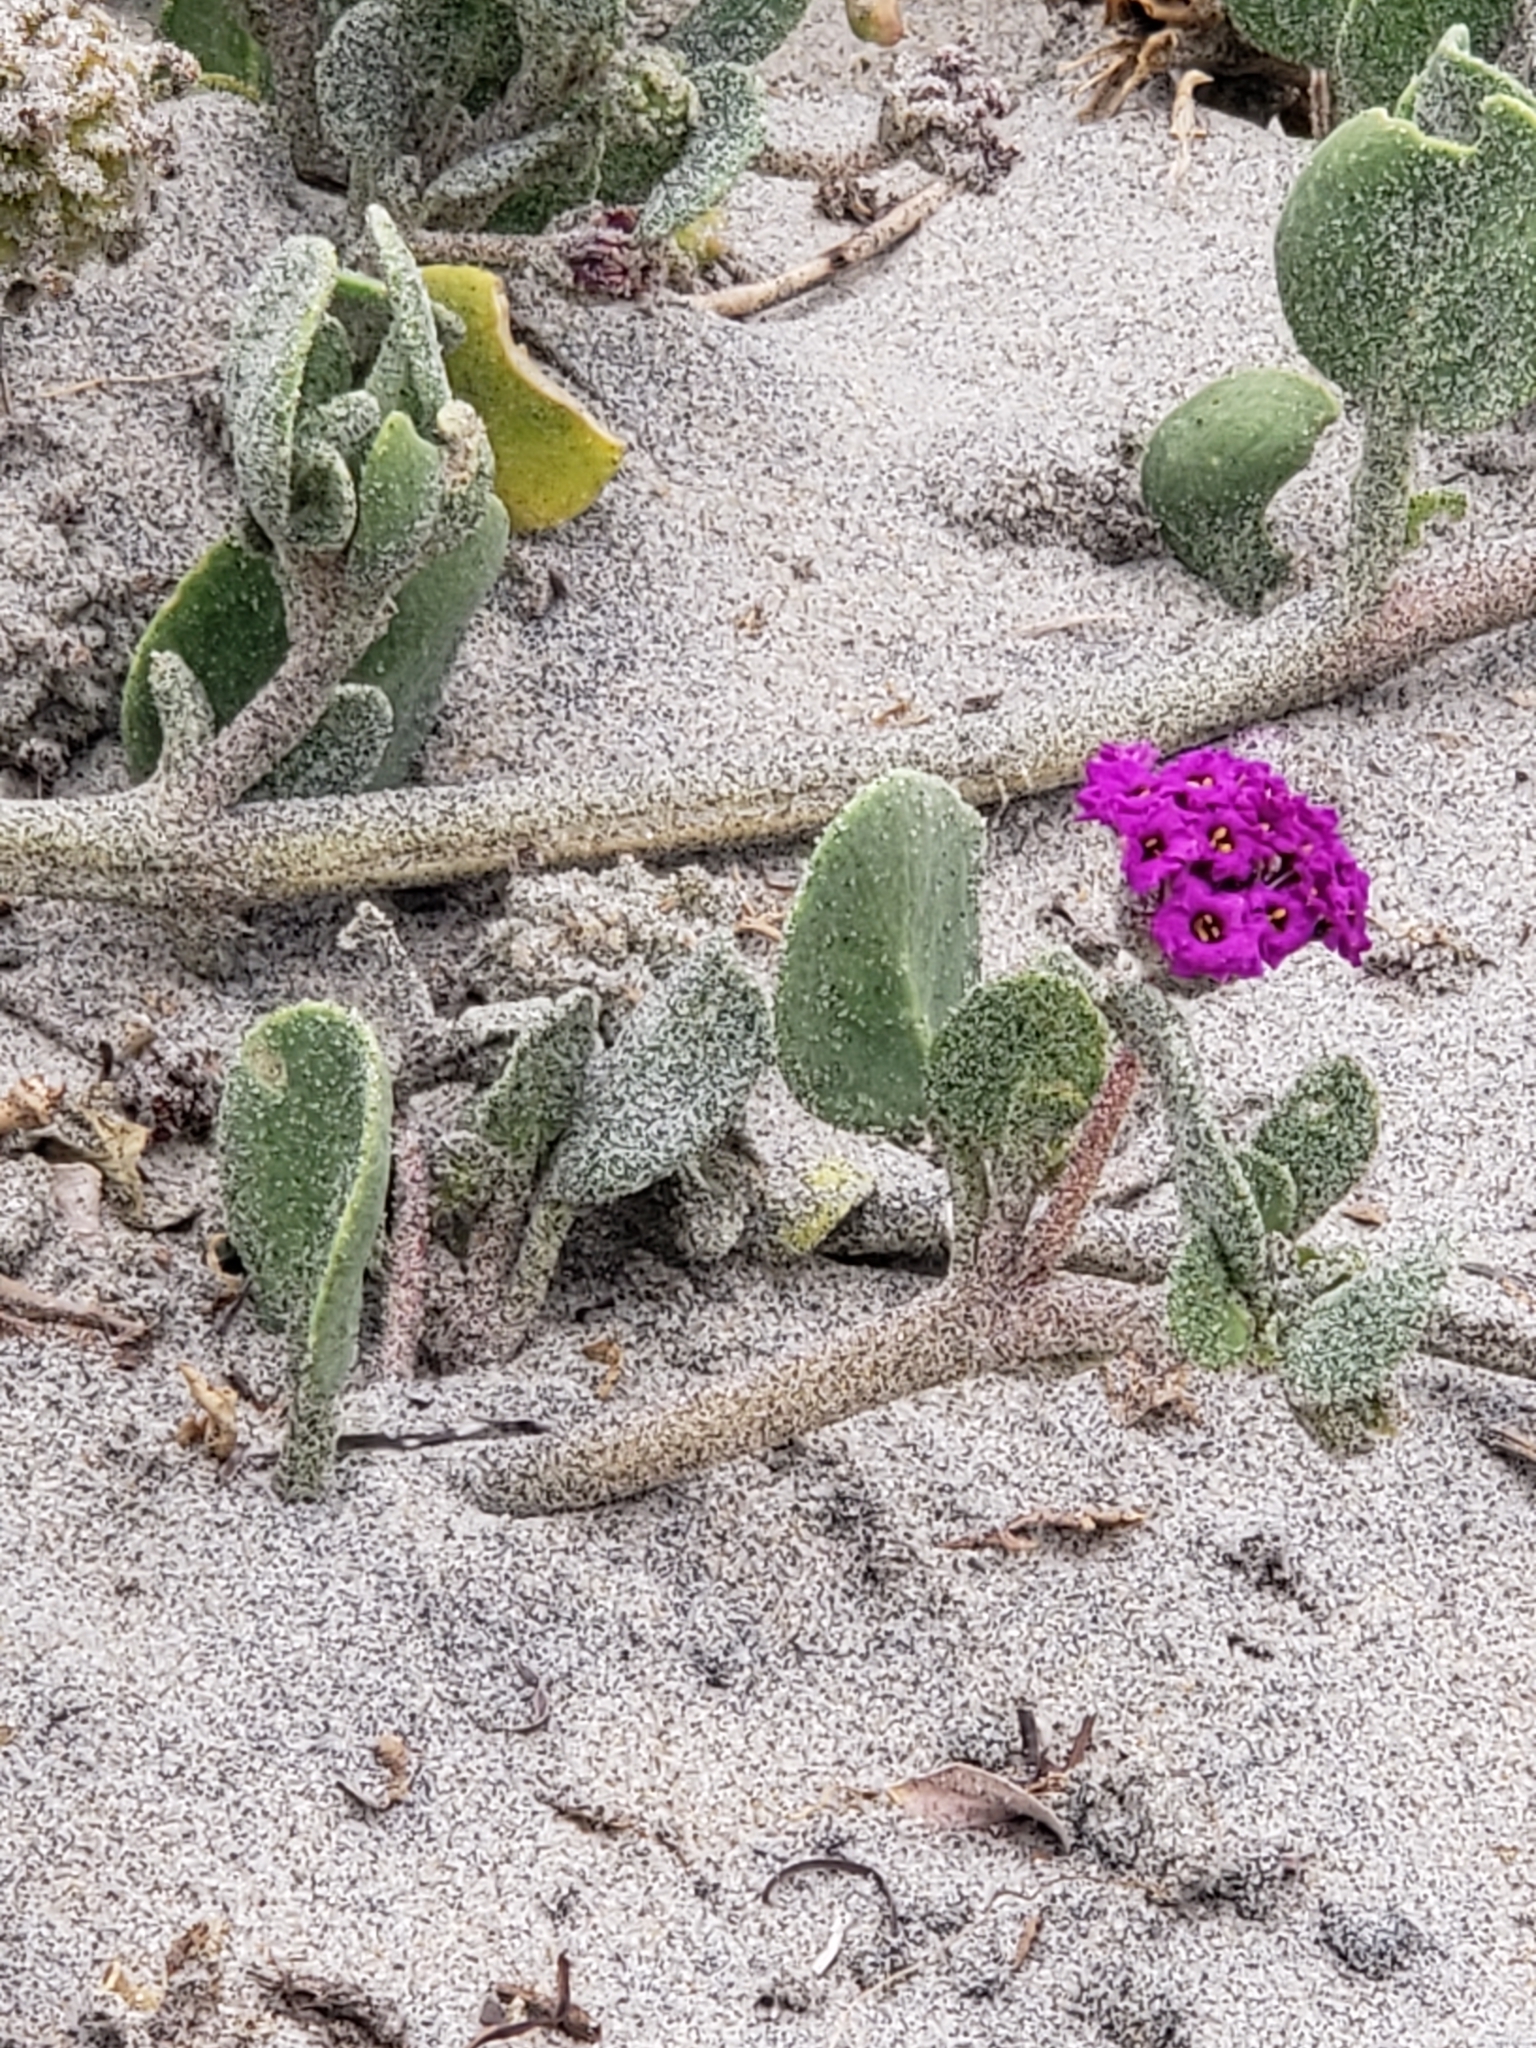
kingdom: Plantae
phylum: Tracheophyta
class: Magnoliopsida
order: Caryophyllales
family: Nyctaginaceae
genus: Abronia
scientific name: Abronia maritima
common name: Red sand-verbena
